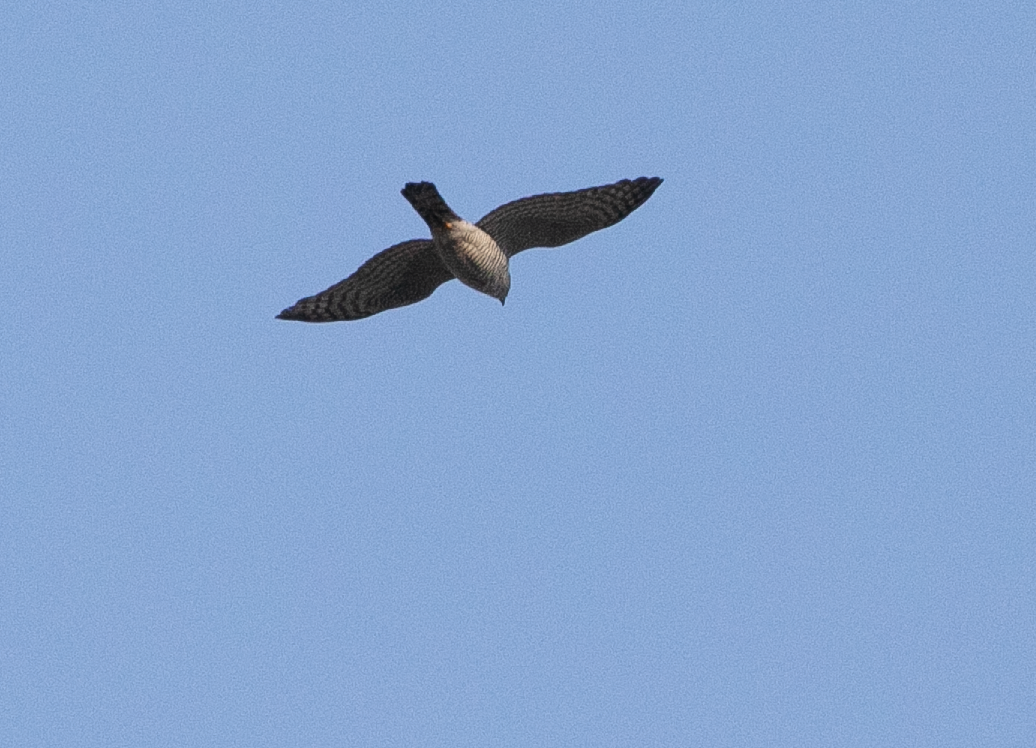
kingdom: Animalia
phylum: Chordata
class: Aves
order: Accipitriformes
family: Accipitridae
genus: Accipiter
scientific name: Accipiter nisus
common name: Eurasian sparrowhawk
